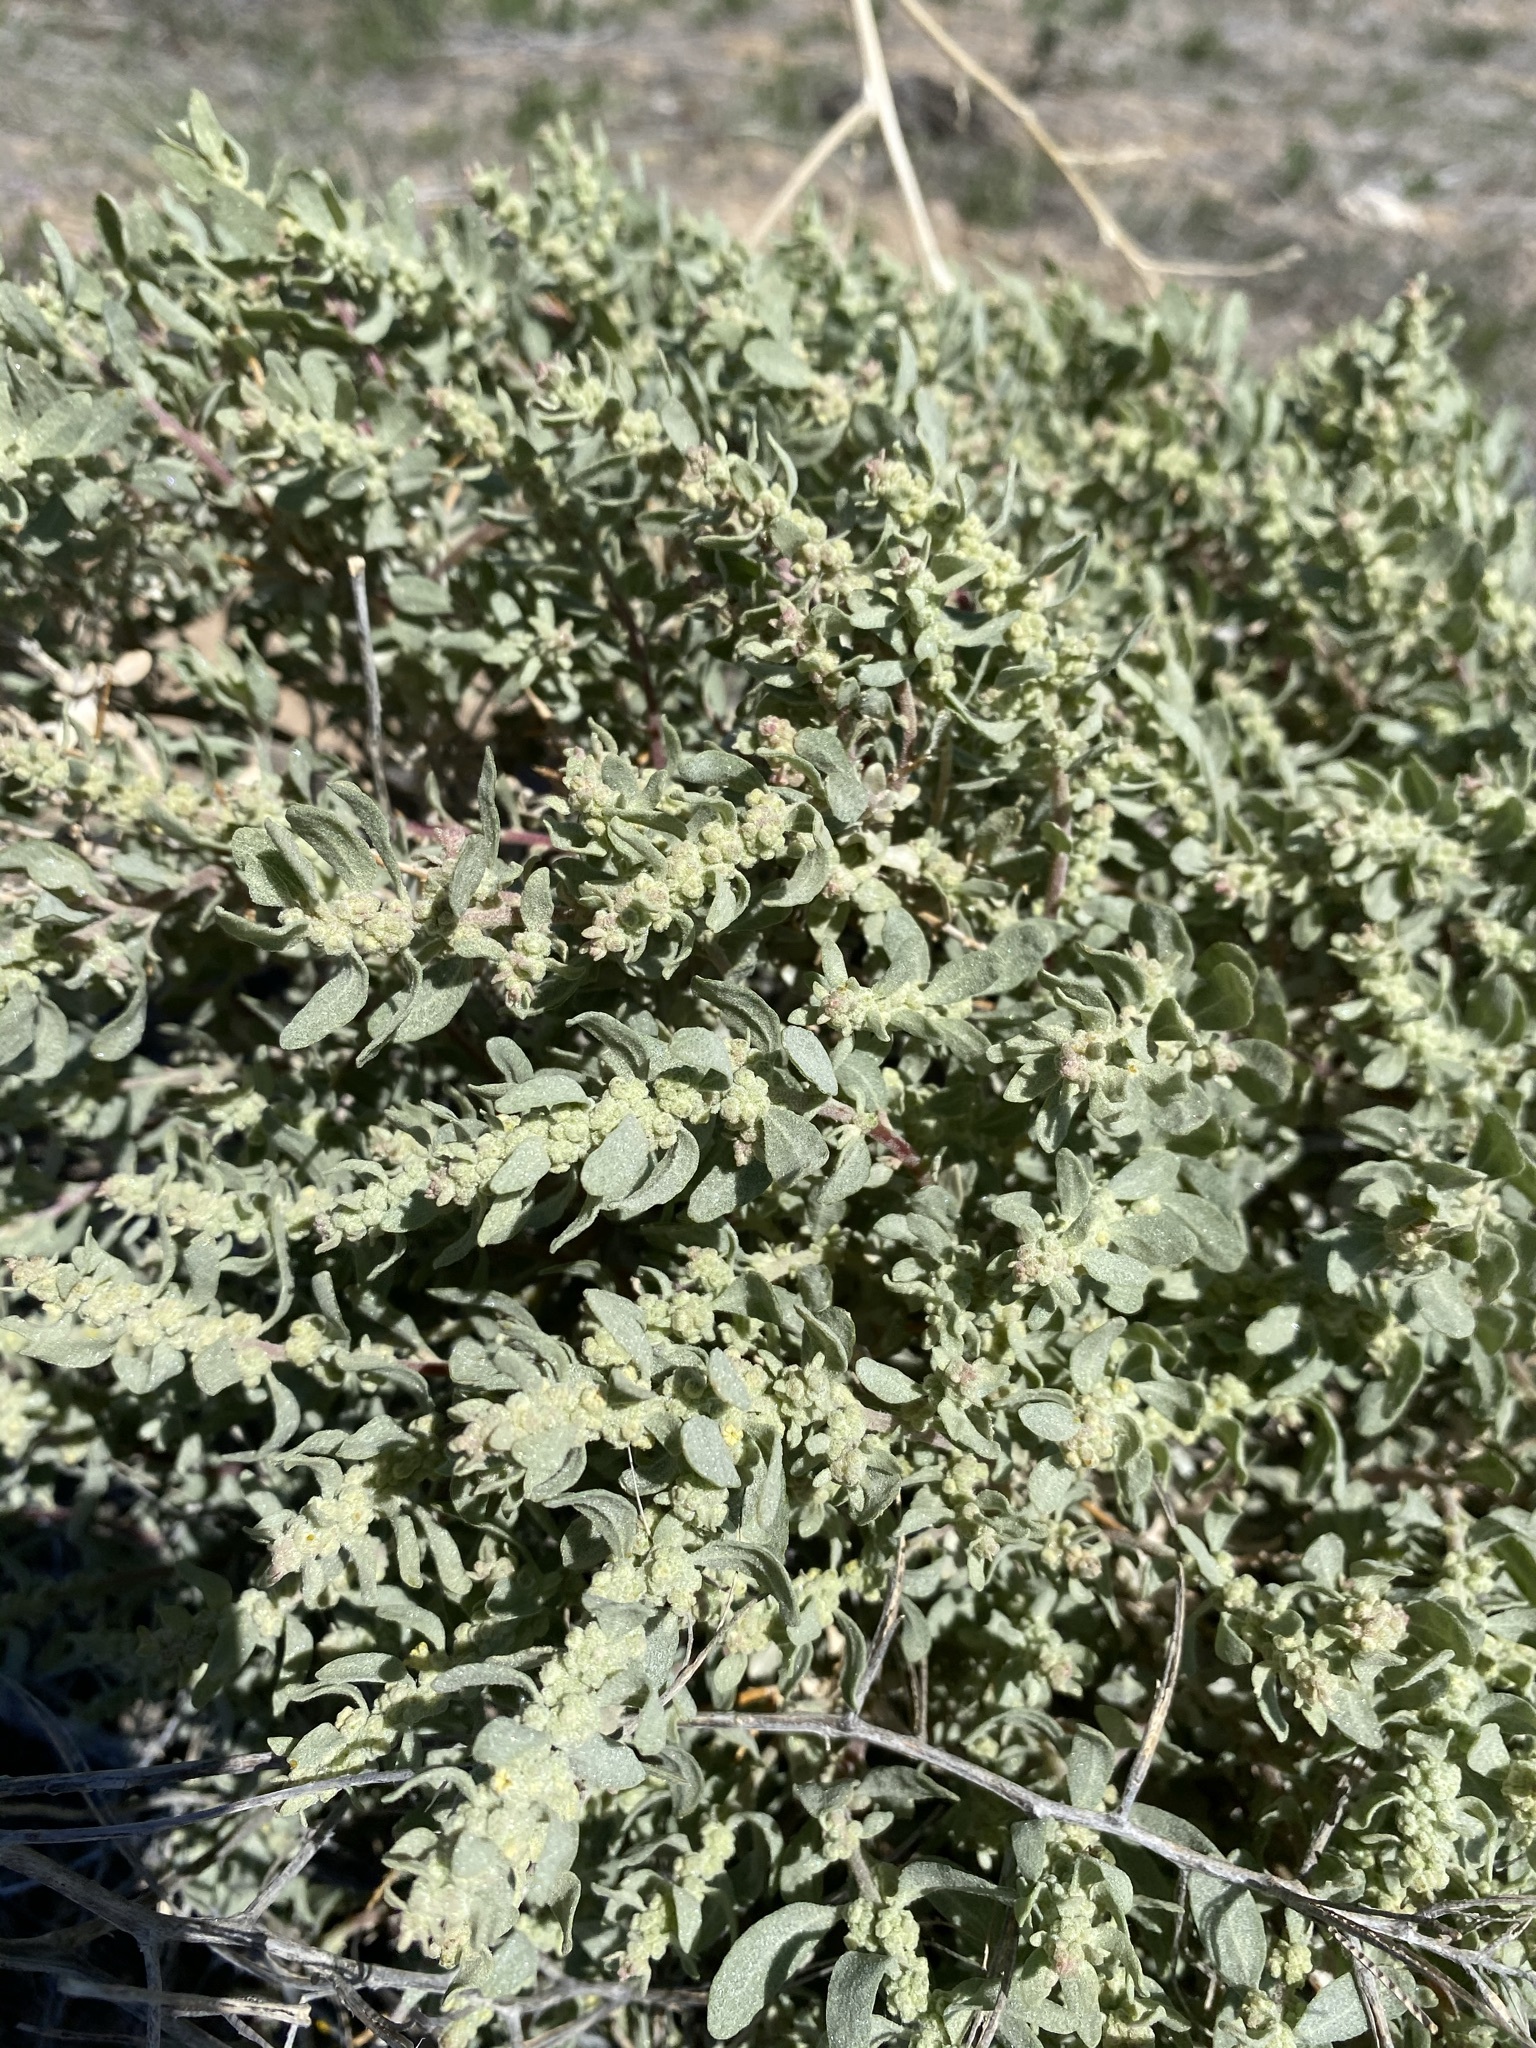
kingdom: Plantae
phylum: Tracheophyta
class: Magnoliopsida
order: Caryophyllales
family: Amaranthaceae
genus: Atriplex
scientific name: Atriplex confertifolia
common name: Shadscale
